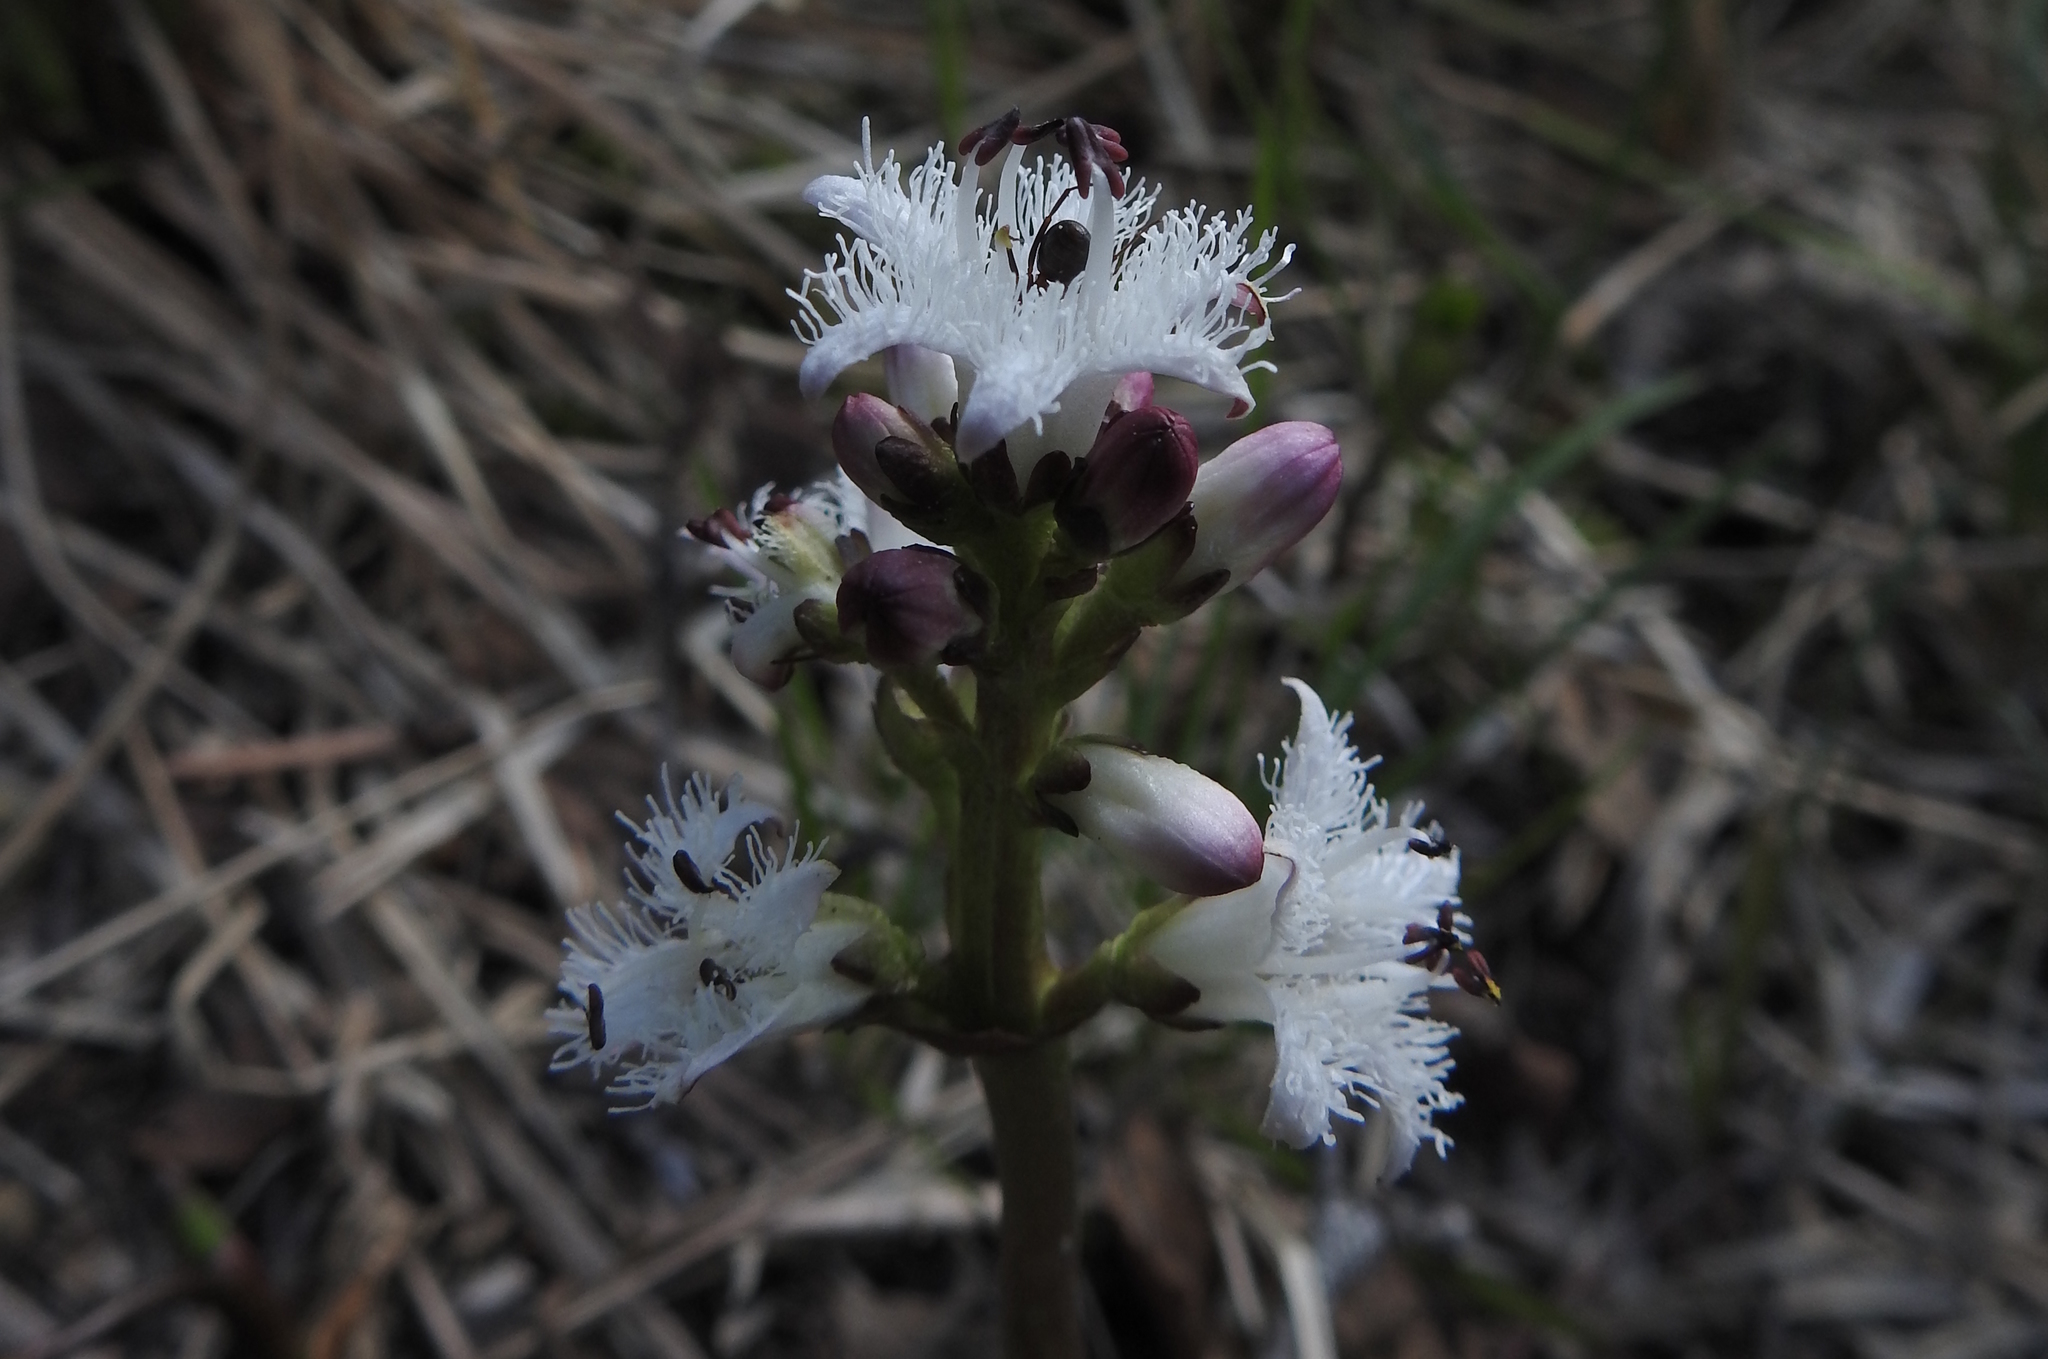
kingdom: Plantae
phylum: Tracheophyta
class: Magnoliopsida
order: Asterales
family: Menyanthaceae
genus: Menyanthes
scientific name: Menyanthes trifoliata
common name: Bogbean
